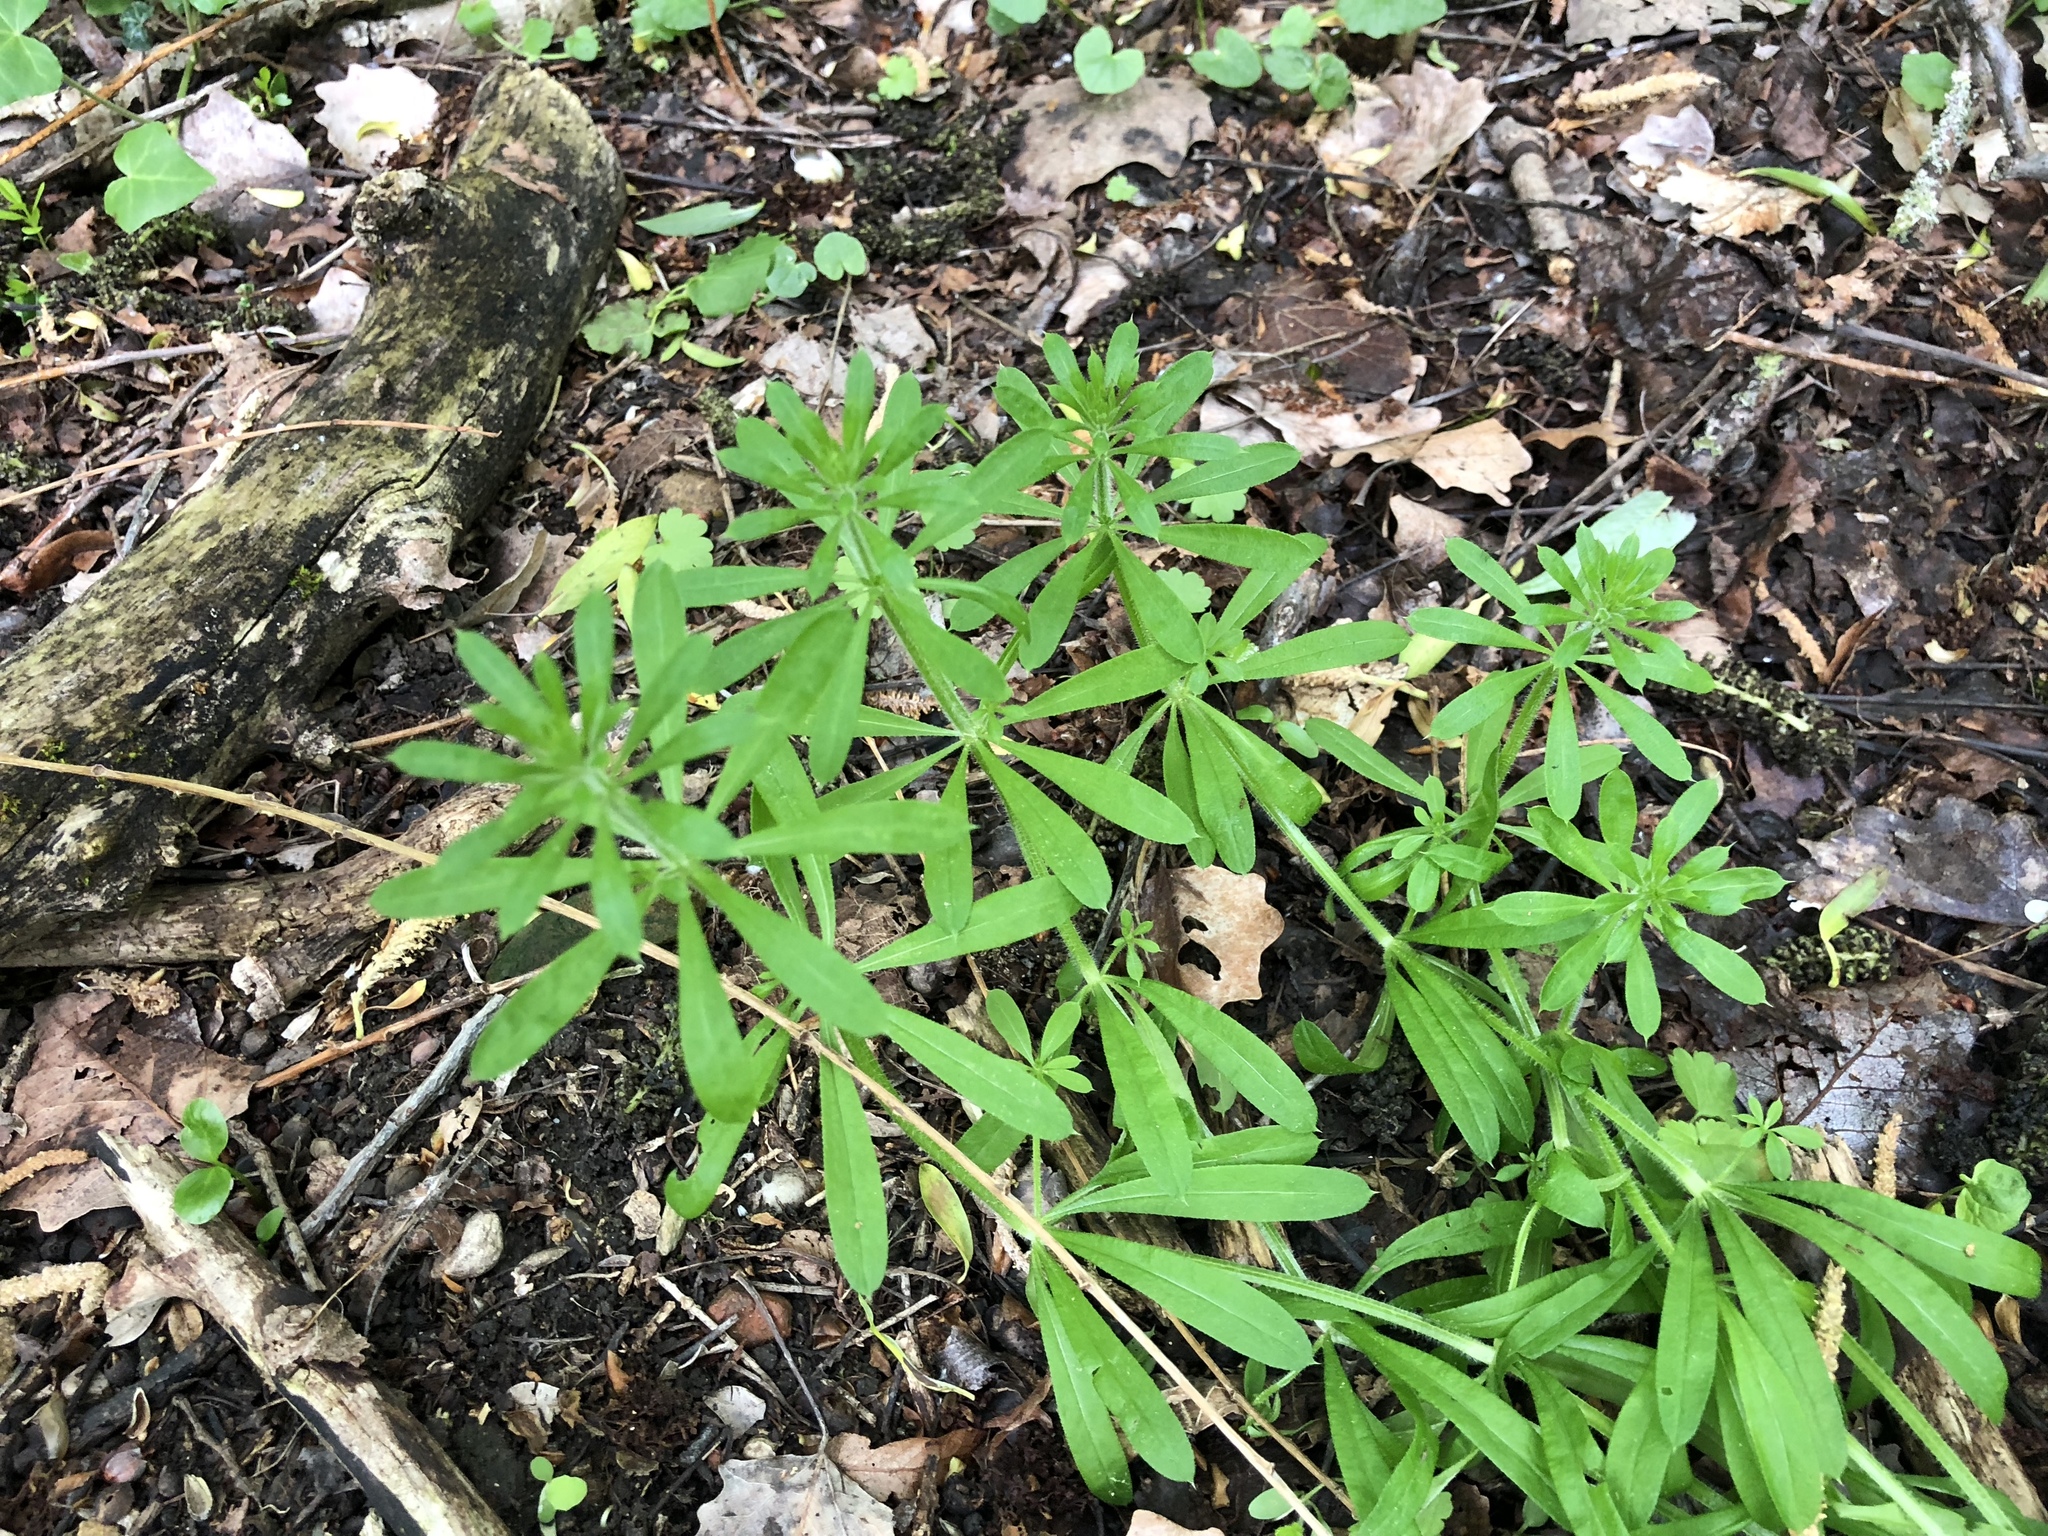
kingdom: Plantae
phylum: Tracheophyta
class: Magnoliopsida
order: Gentianales
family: Rubiaceae
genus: Galium
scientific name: Galium aparine
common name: Cleavers
